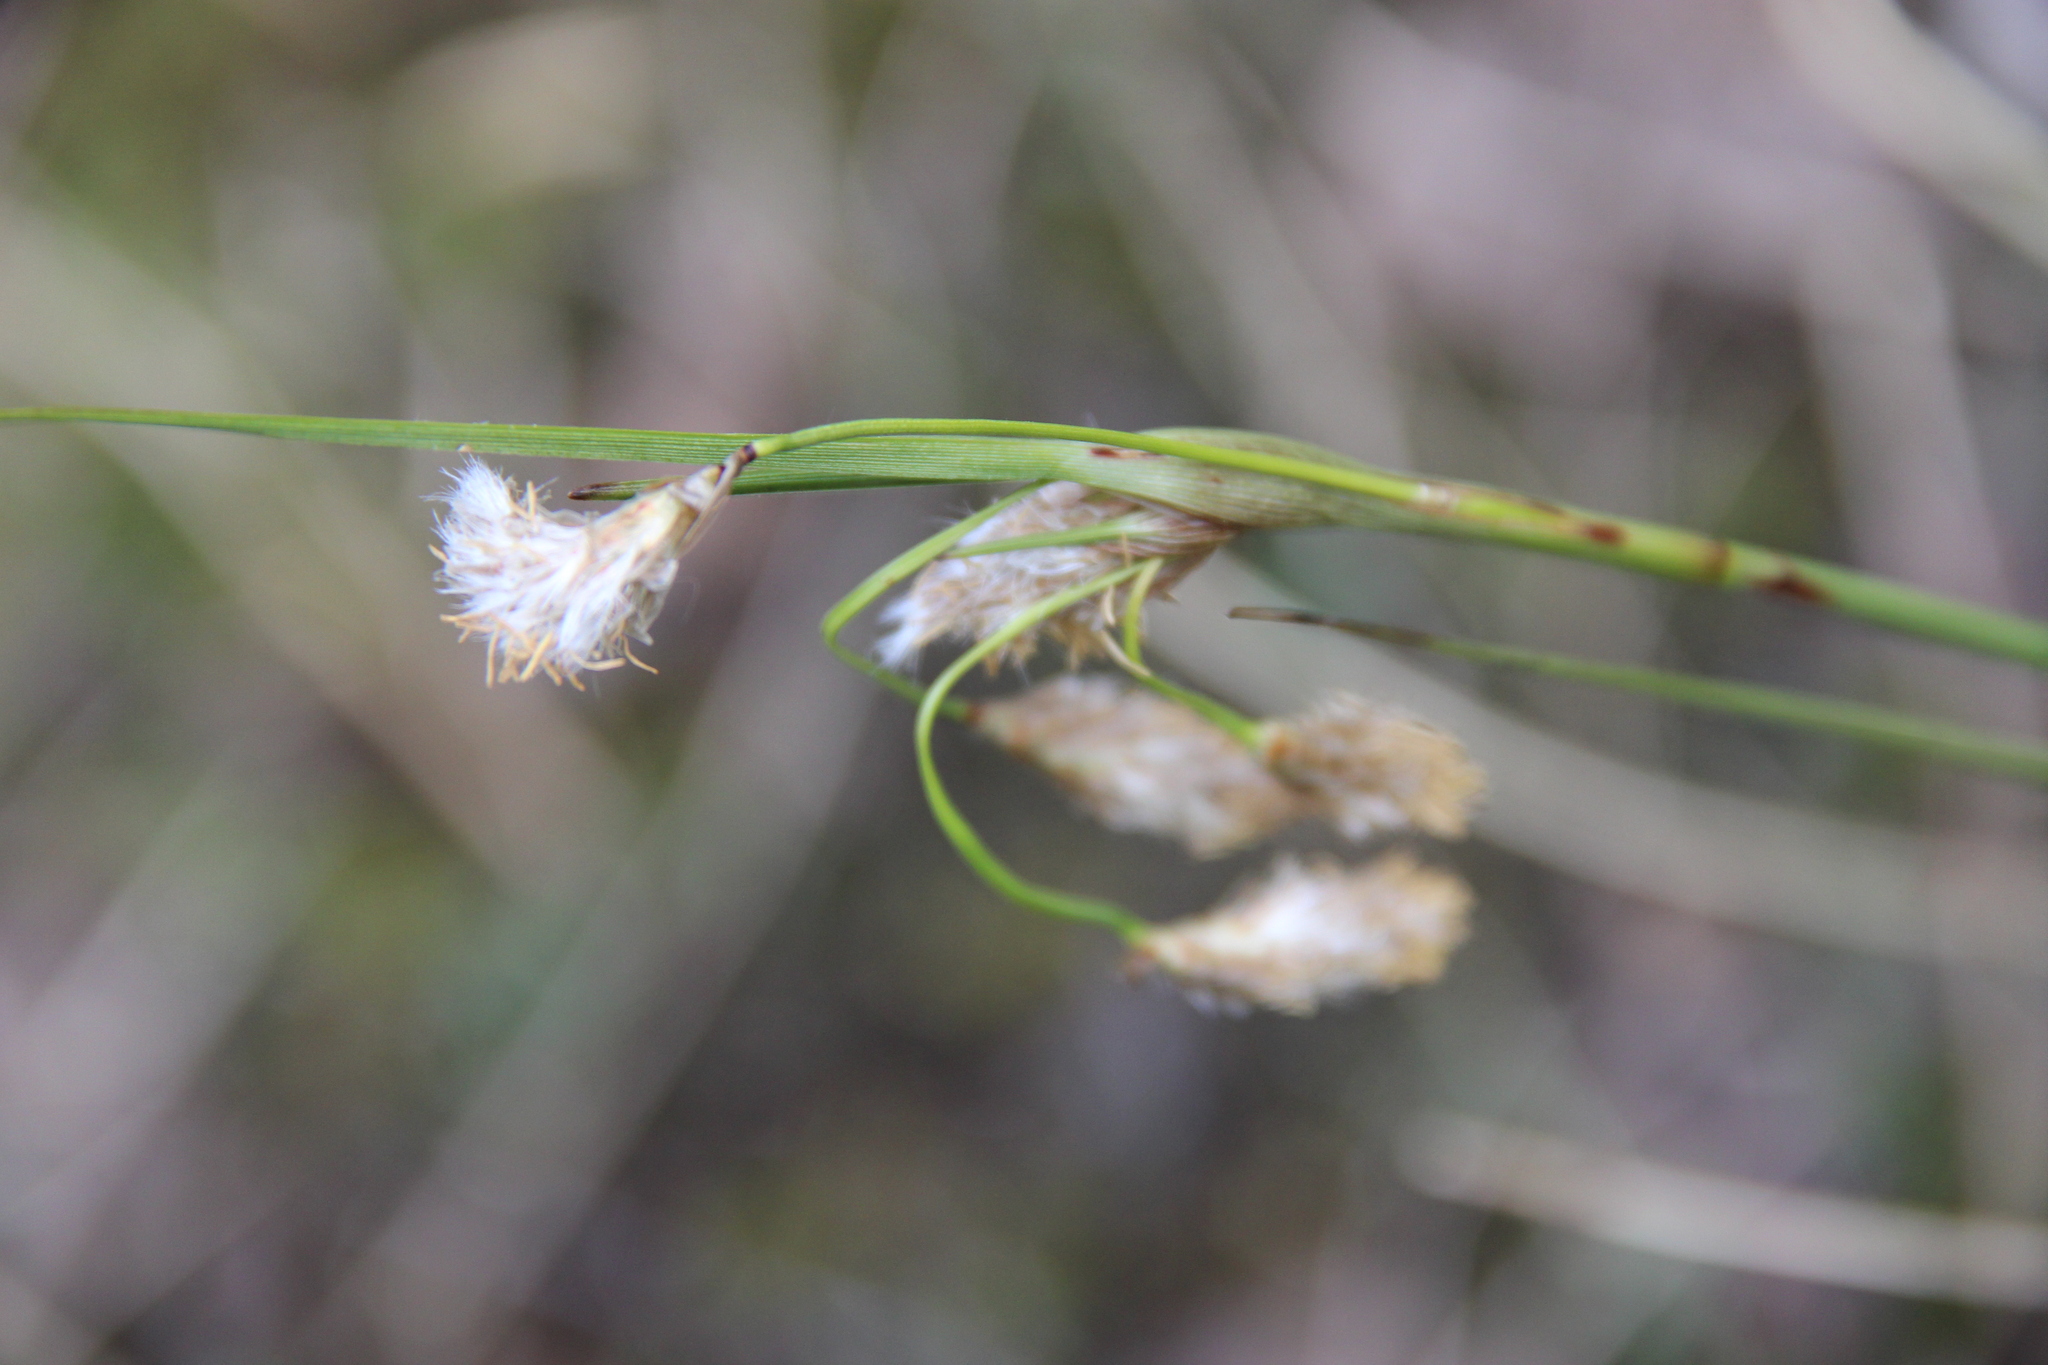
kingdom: Plantae
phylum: Tracheophyta
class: Liliopsida
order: Poales
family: Cyperaceae
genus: Eriophorum
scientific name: Eriophorum angustifolium
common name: Common cottongrass
